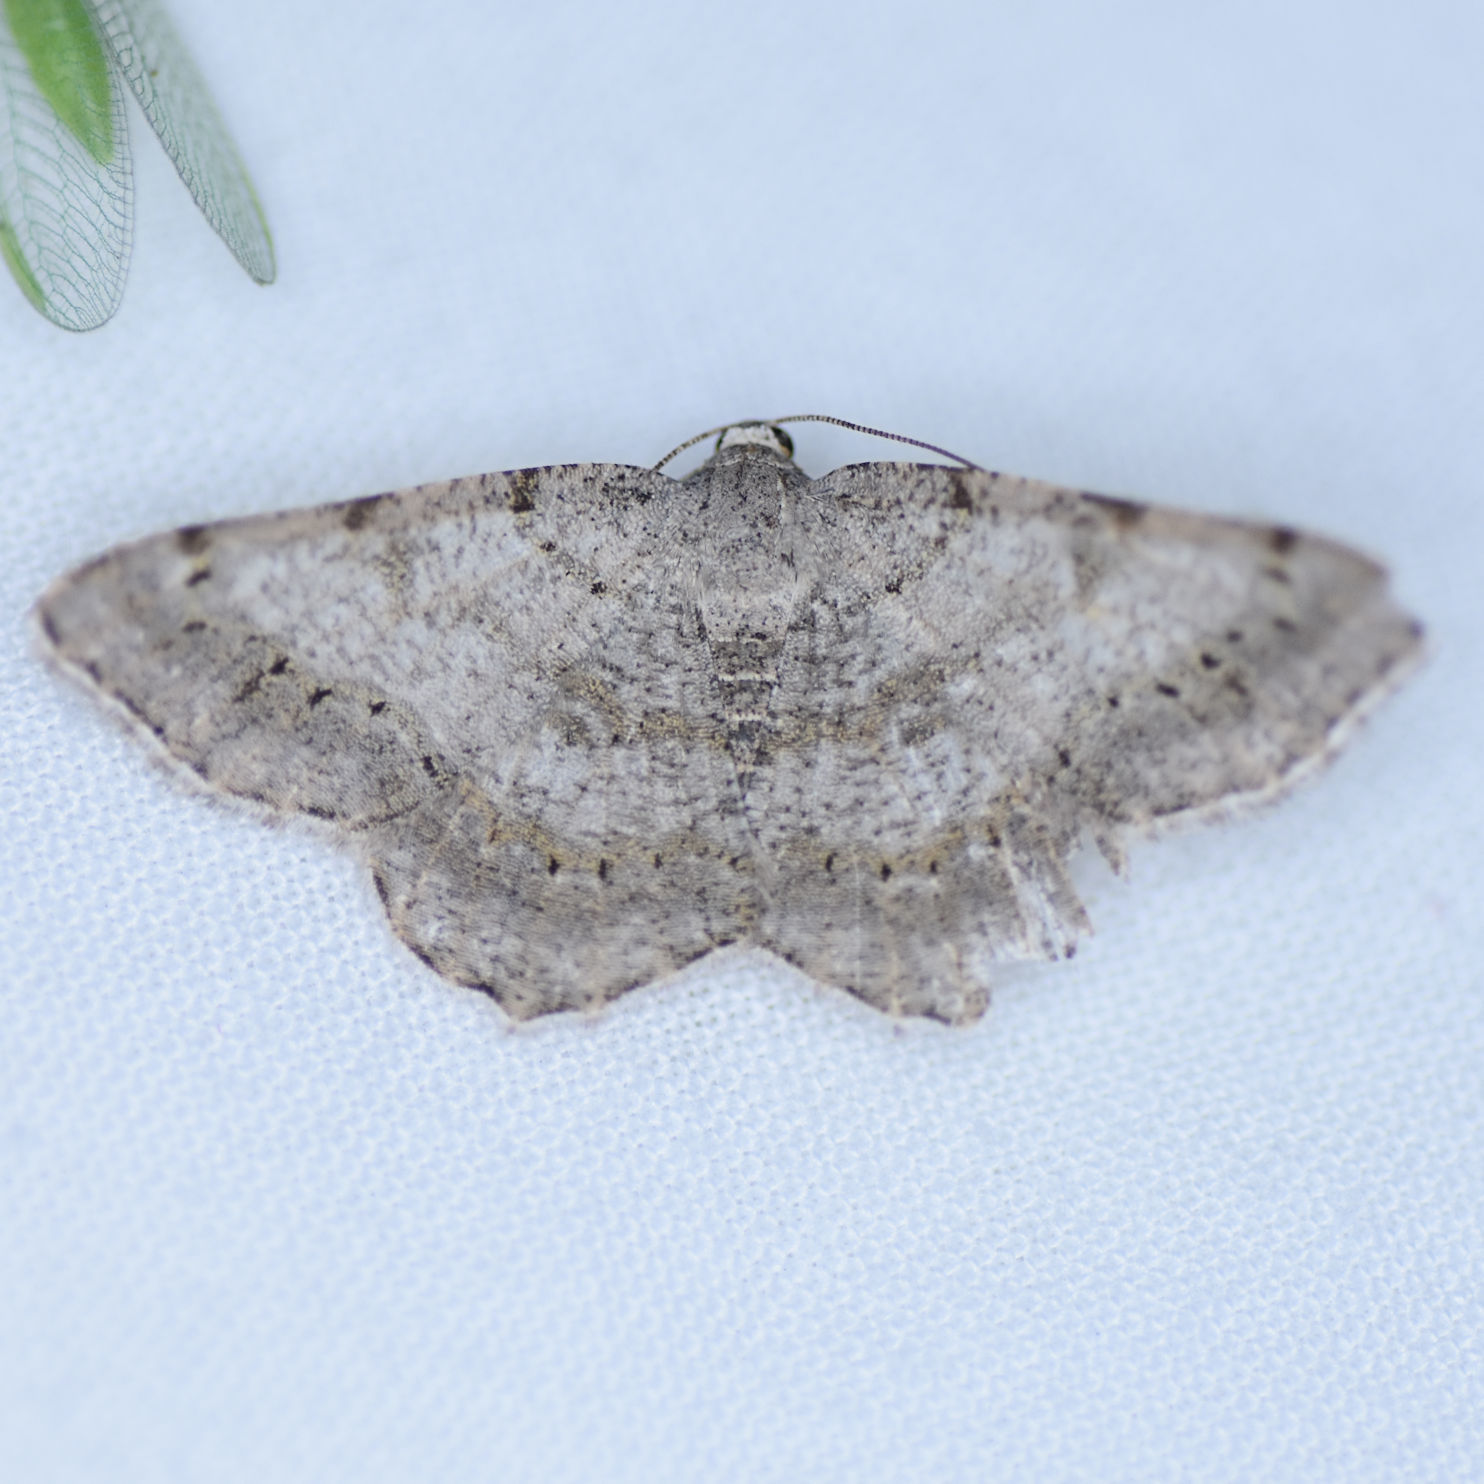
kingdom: Animalia
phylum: Arthropoda
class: Insecta
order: Lepidoptera
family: Geometridae
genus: Digrammia
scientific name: Digrammia ocellinata
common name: Faint-spotted angle
